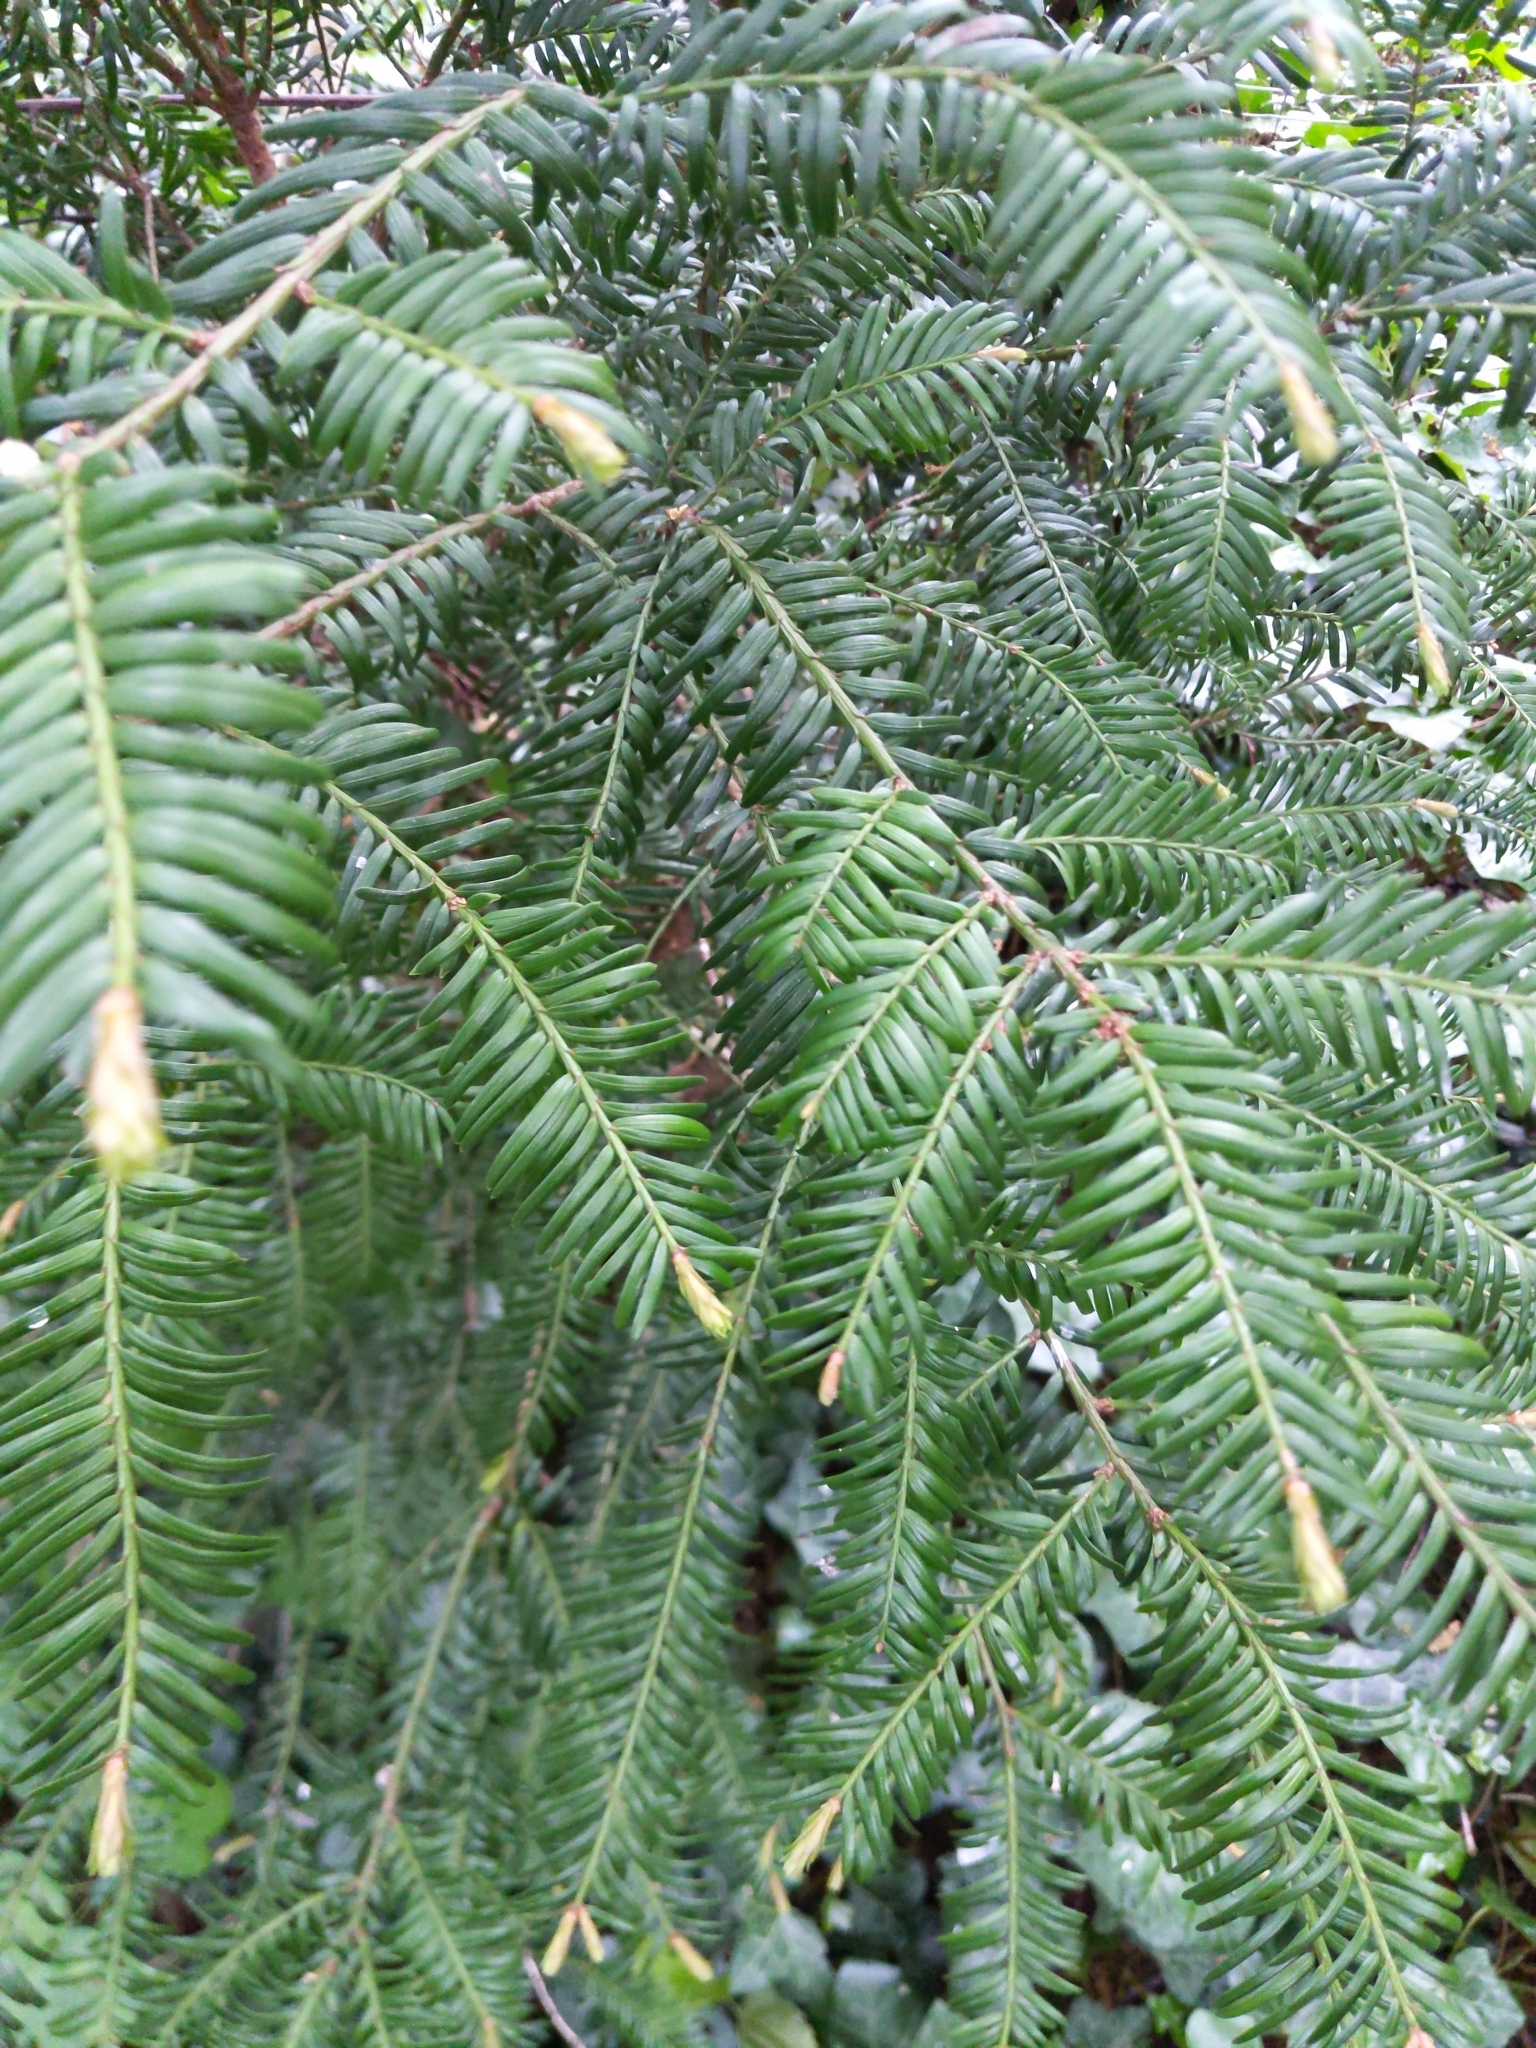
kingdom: Plantae
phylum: Tracheophyta
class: Pinopsida
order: Pinales
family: Taxaceae
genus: Taxus
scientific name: Taxus baccata
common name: Yew
